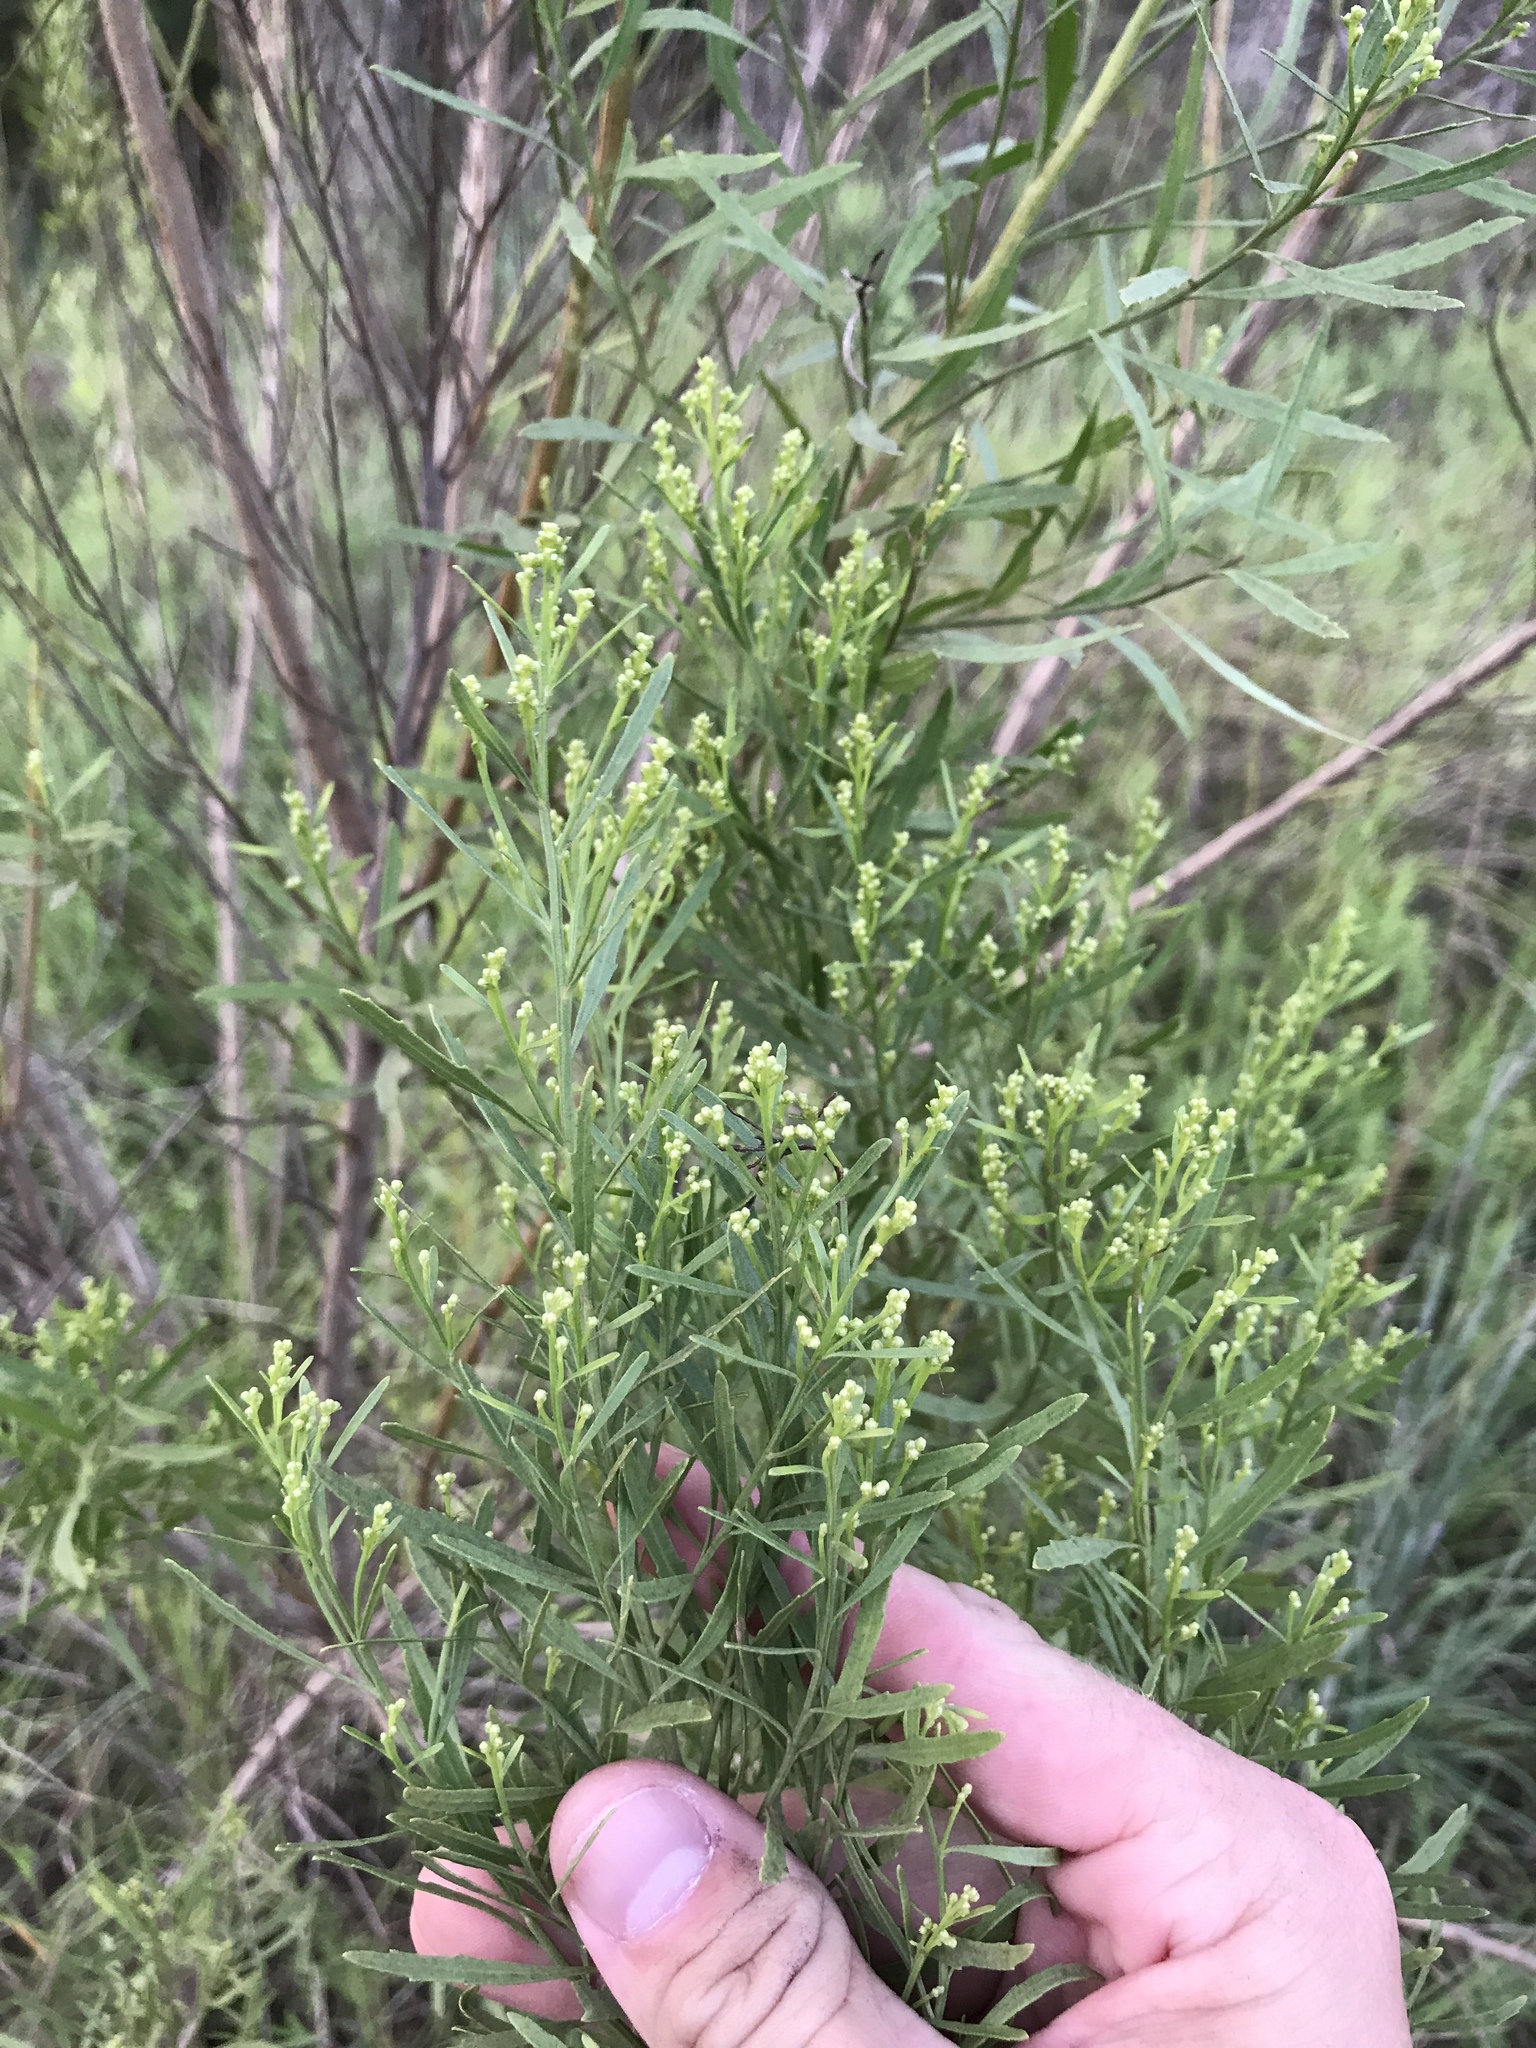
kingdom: Plantae
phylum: Tracheophyta
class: Magnoliopsida
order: Asterales
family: Asteraceae
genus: Baccharis
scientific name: Baccharis neglecta
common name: Roosevelt-weed
